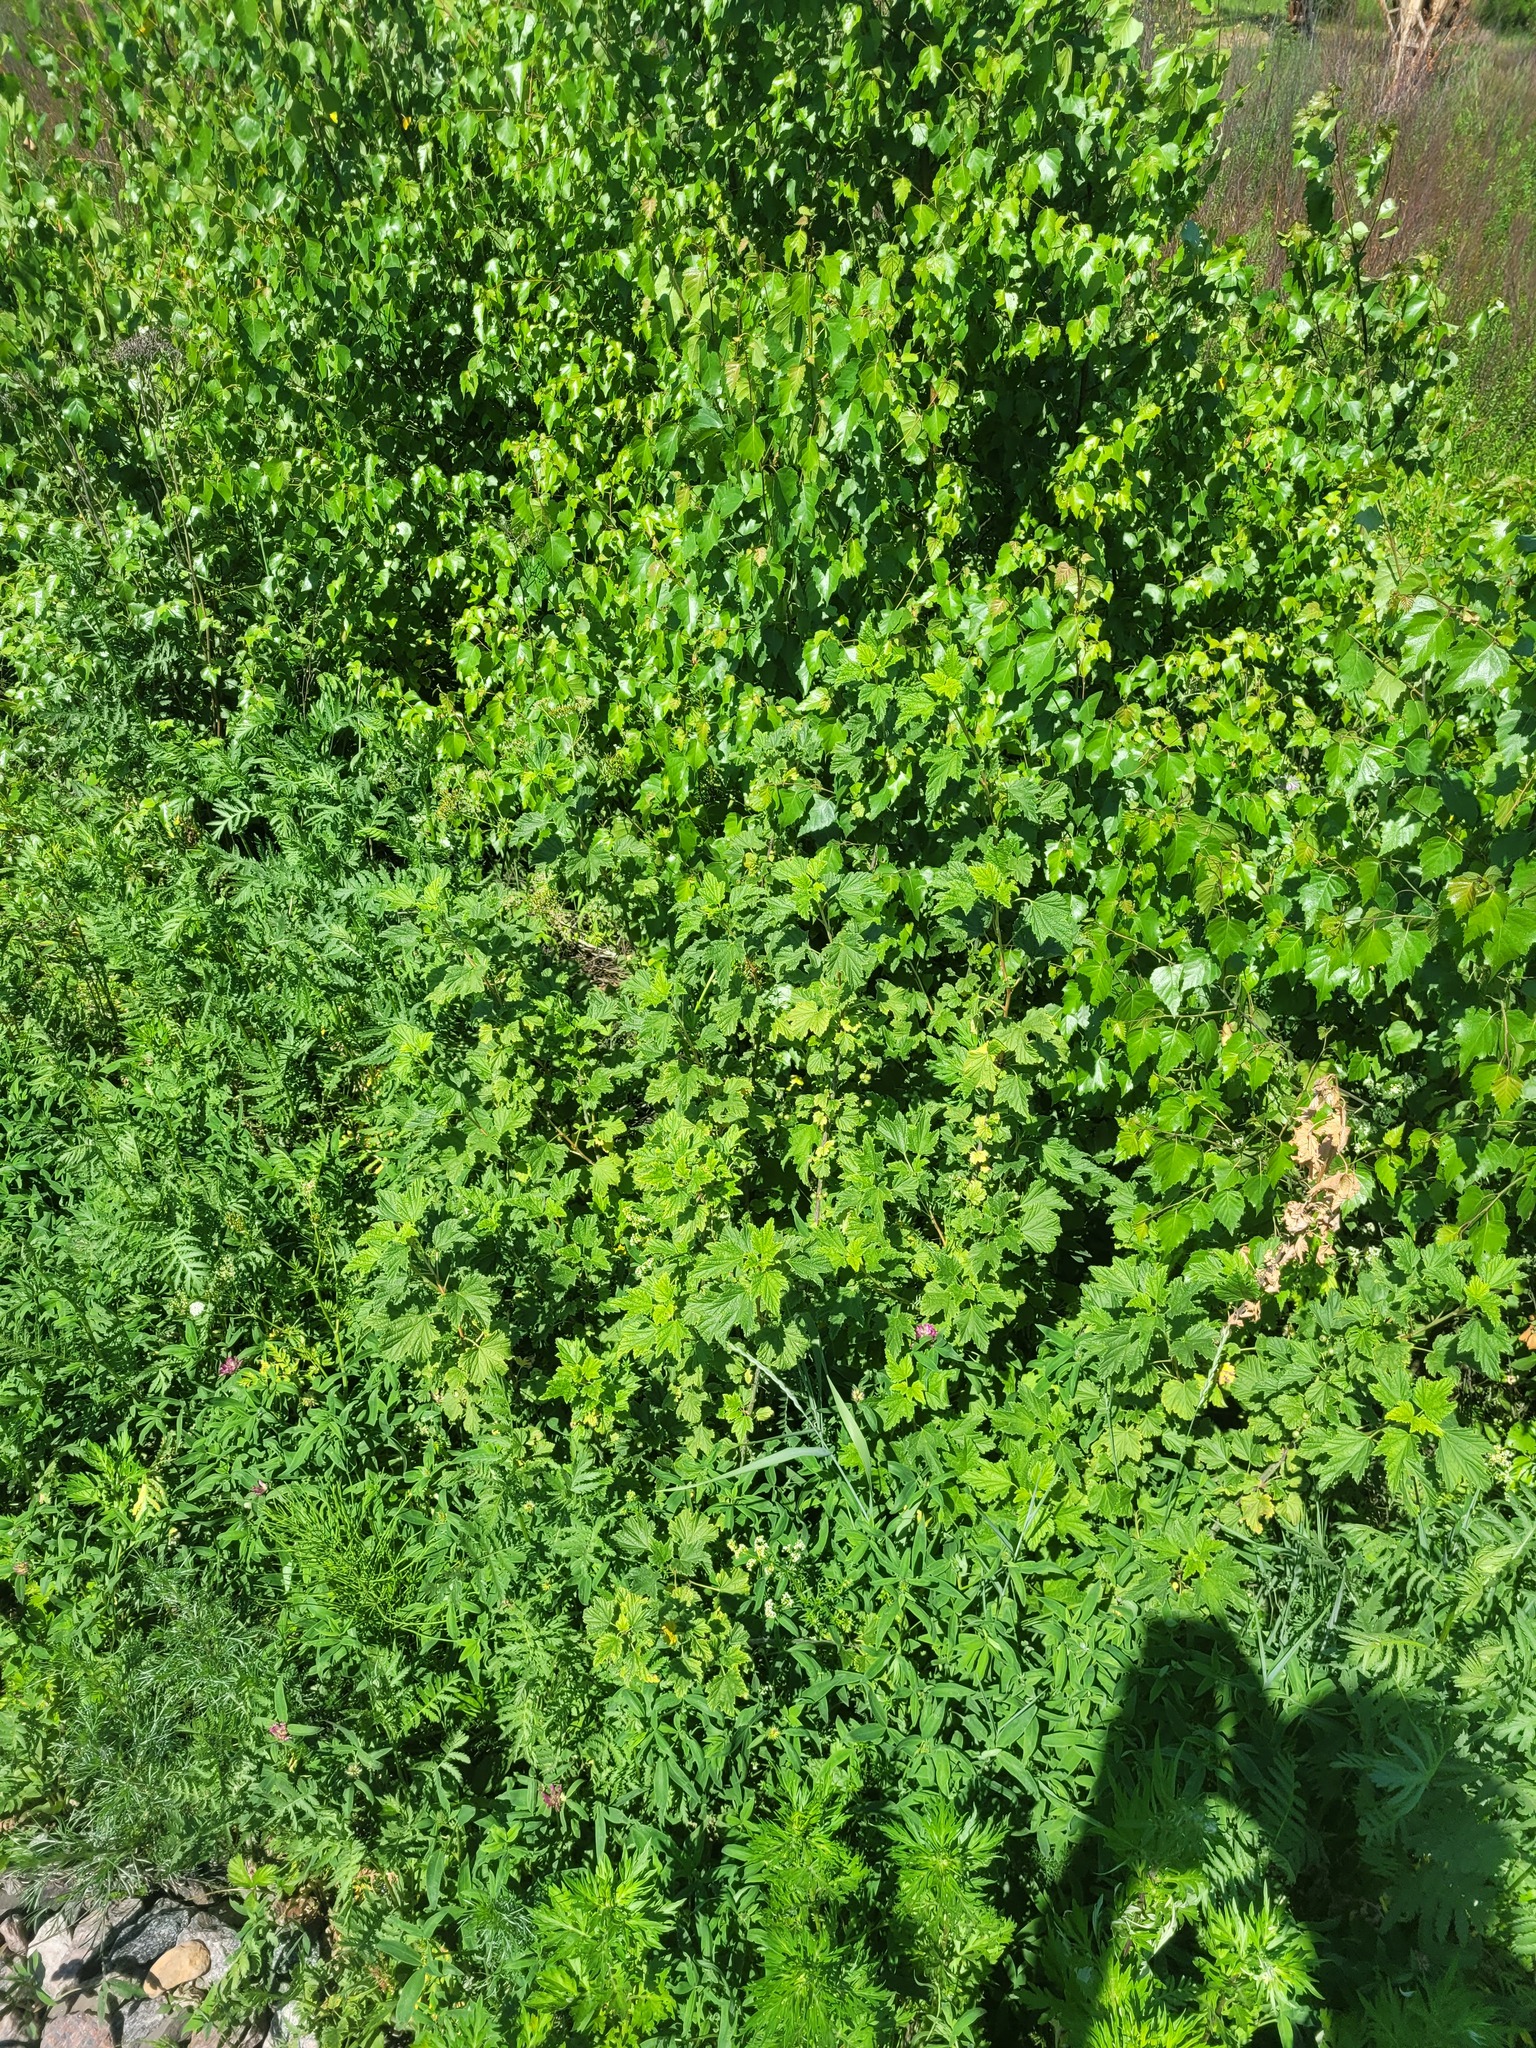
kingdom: Plantae
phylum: Tracheophyta
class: Magnoliopsida
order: Saxifragales
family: Grossulariaceae
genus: Ribes
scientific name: Ribes nigrum
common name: Black currant
